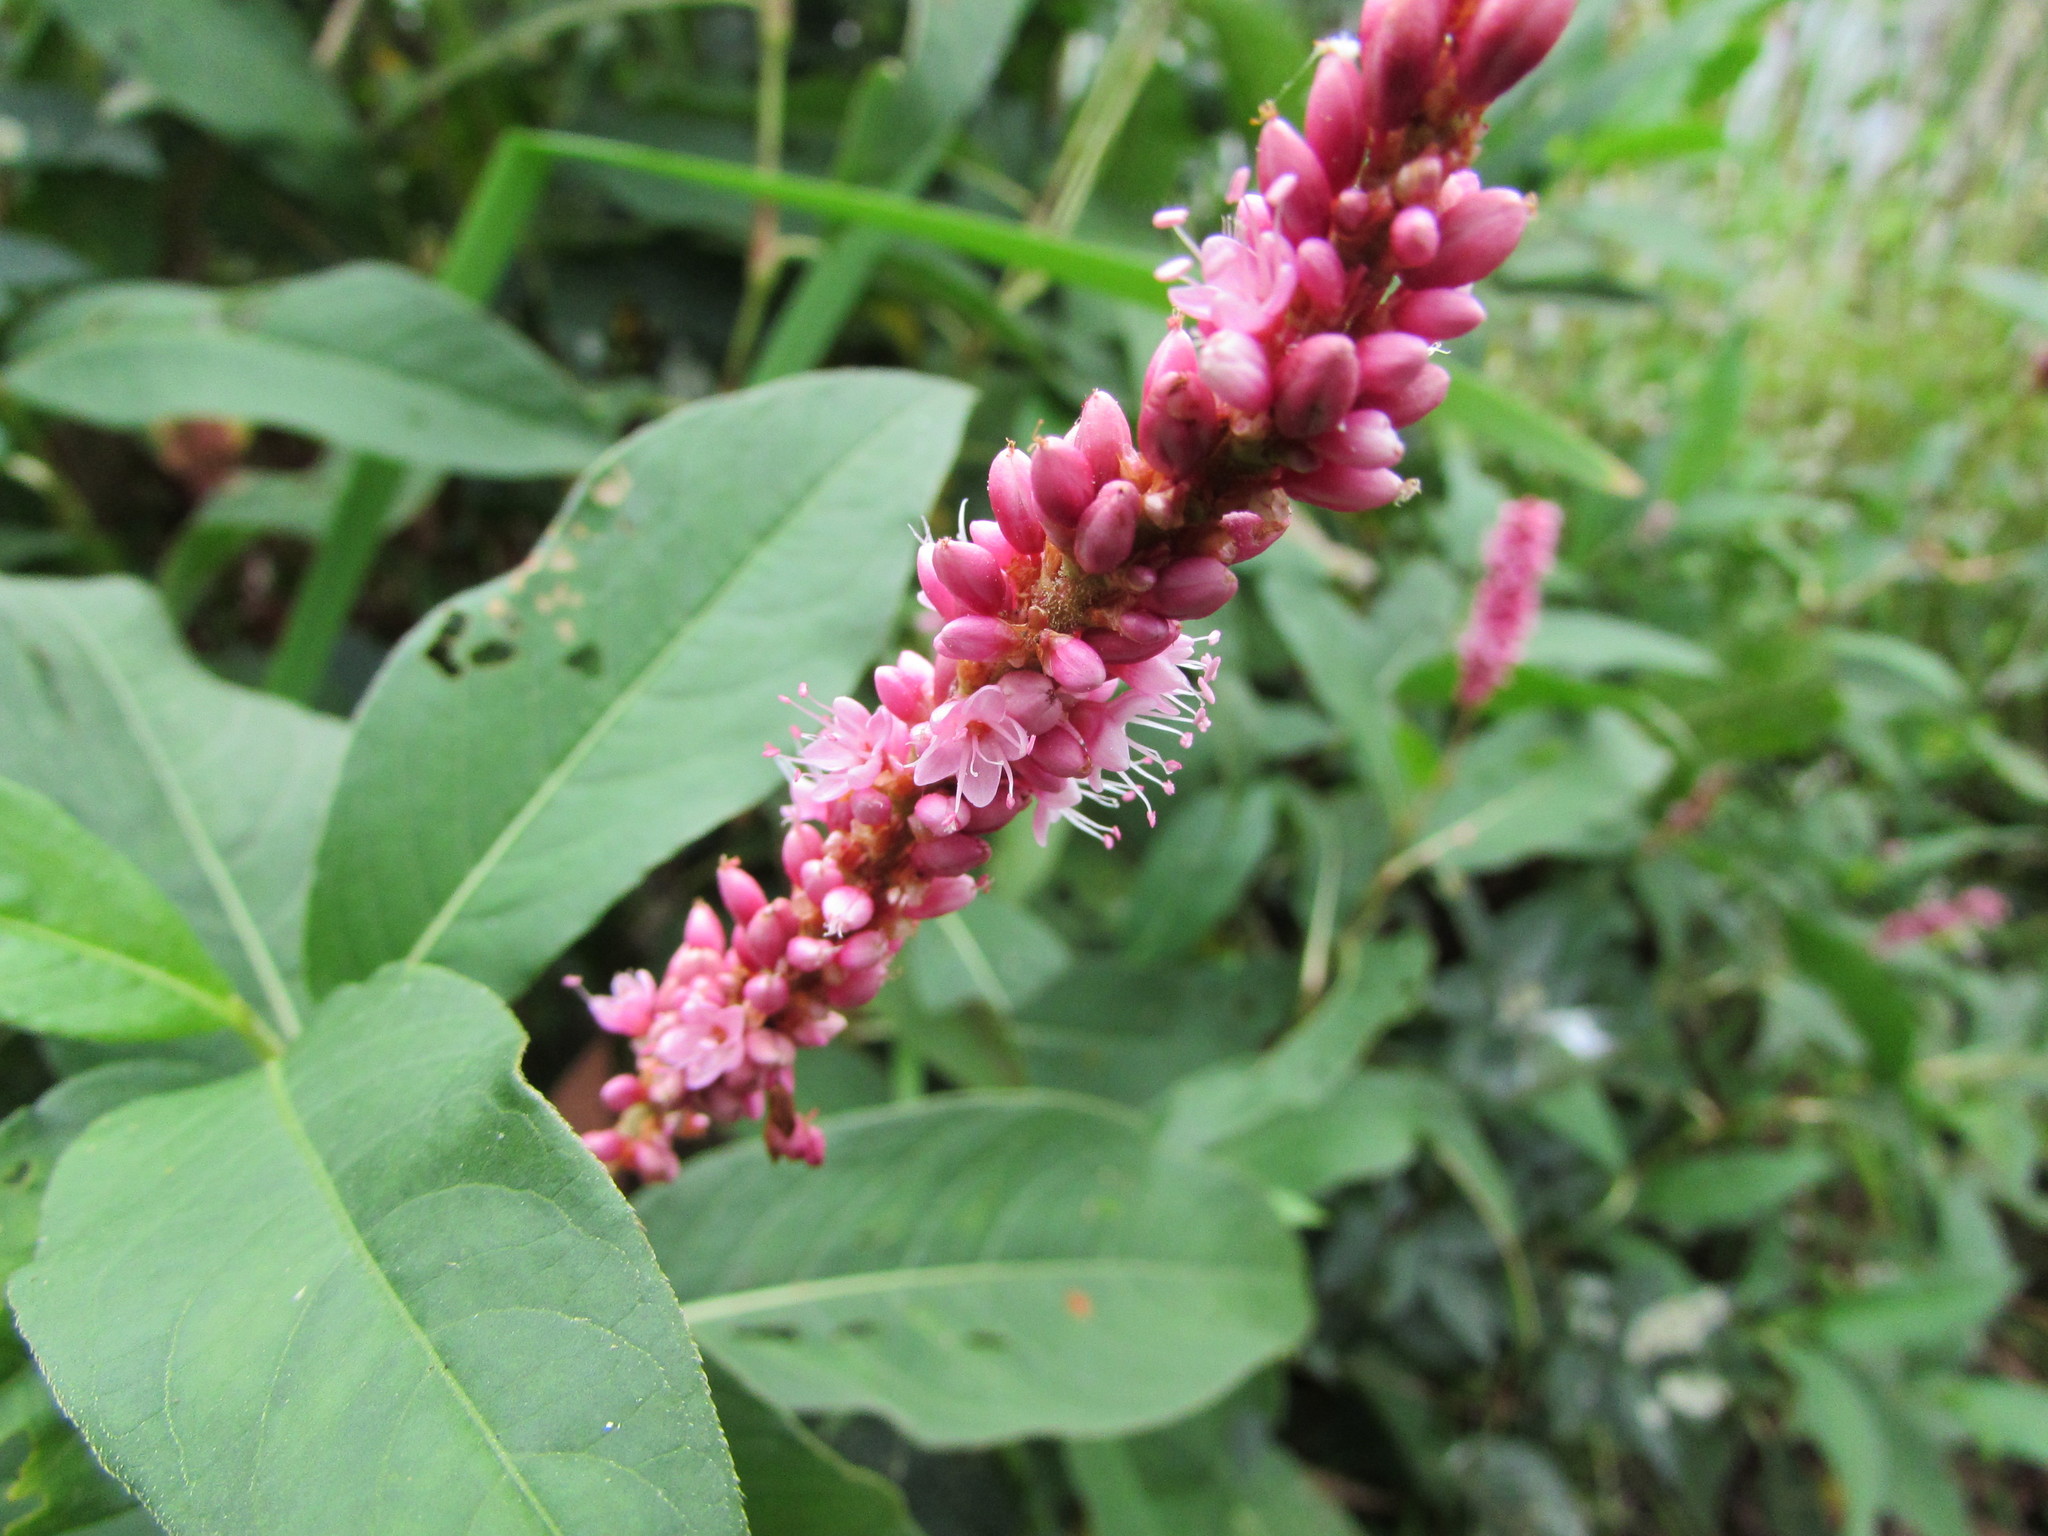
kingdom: Plantae
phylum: Tracheophyta
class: Magnoliopsida
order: Caryophyllales
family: Polygonaceae
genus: Persicaria
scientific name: Persicaria amphibia
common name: Amphibious bistort
